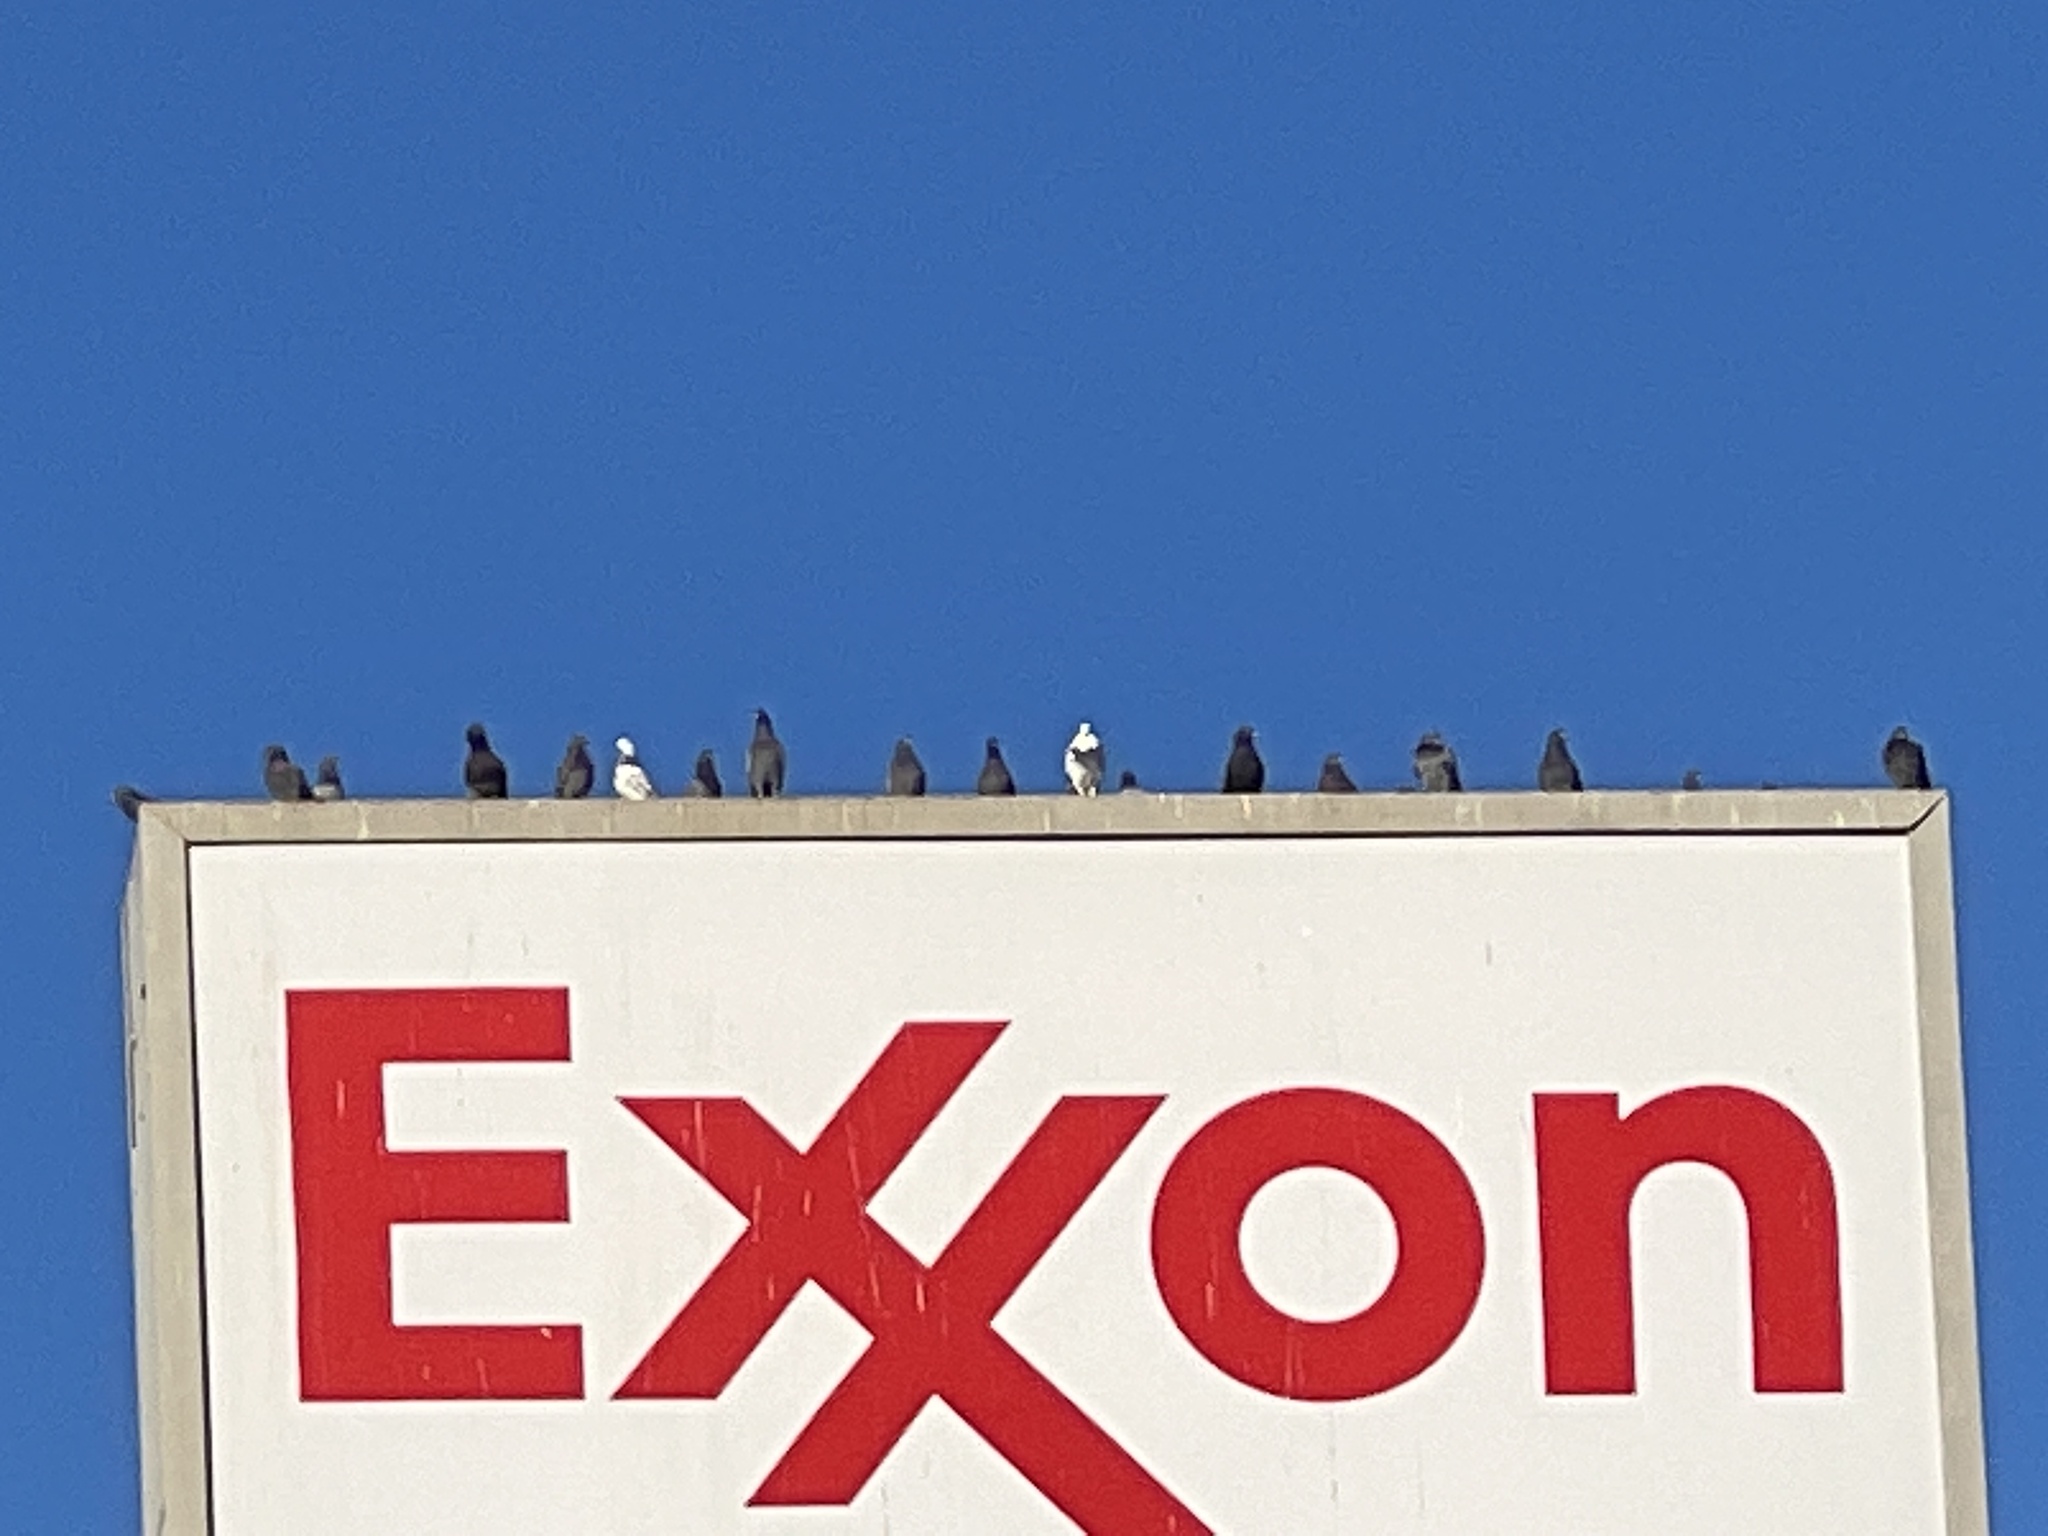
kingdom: Animalia
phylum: Chordata
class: Aves
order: Columbiformes
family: Columbidae
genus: Columba
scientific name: Columba livia
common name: Rock pigeon
